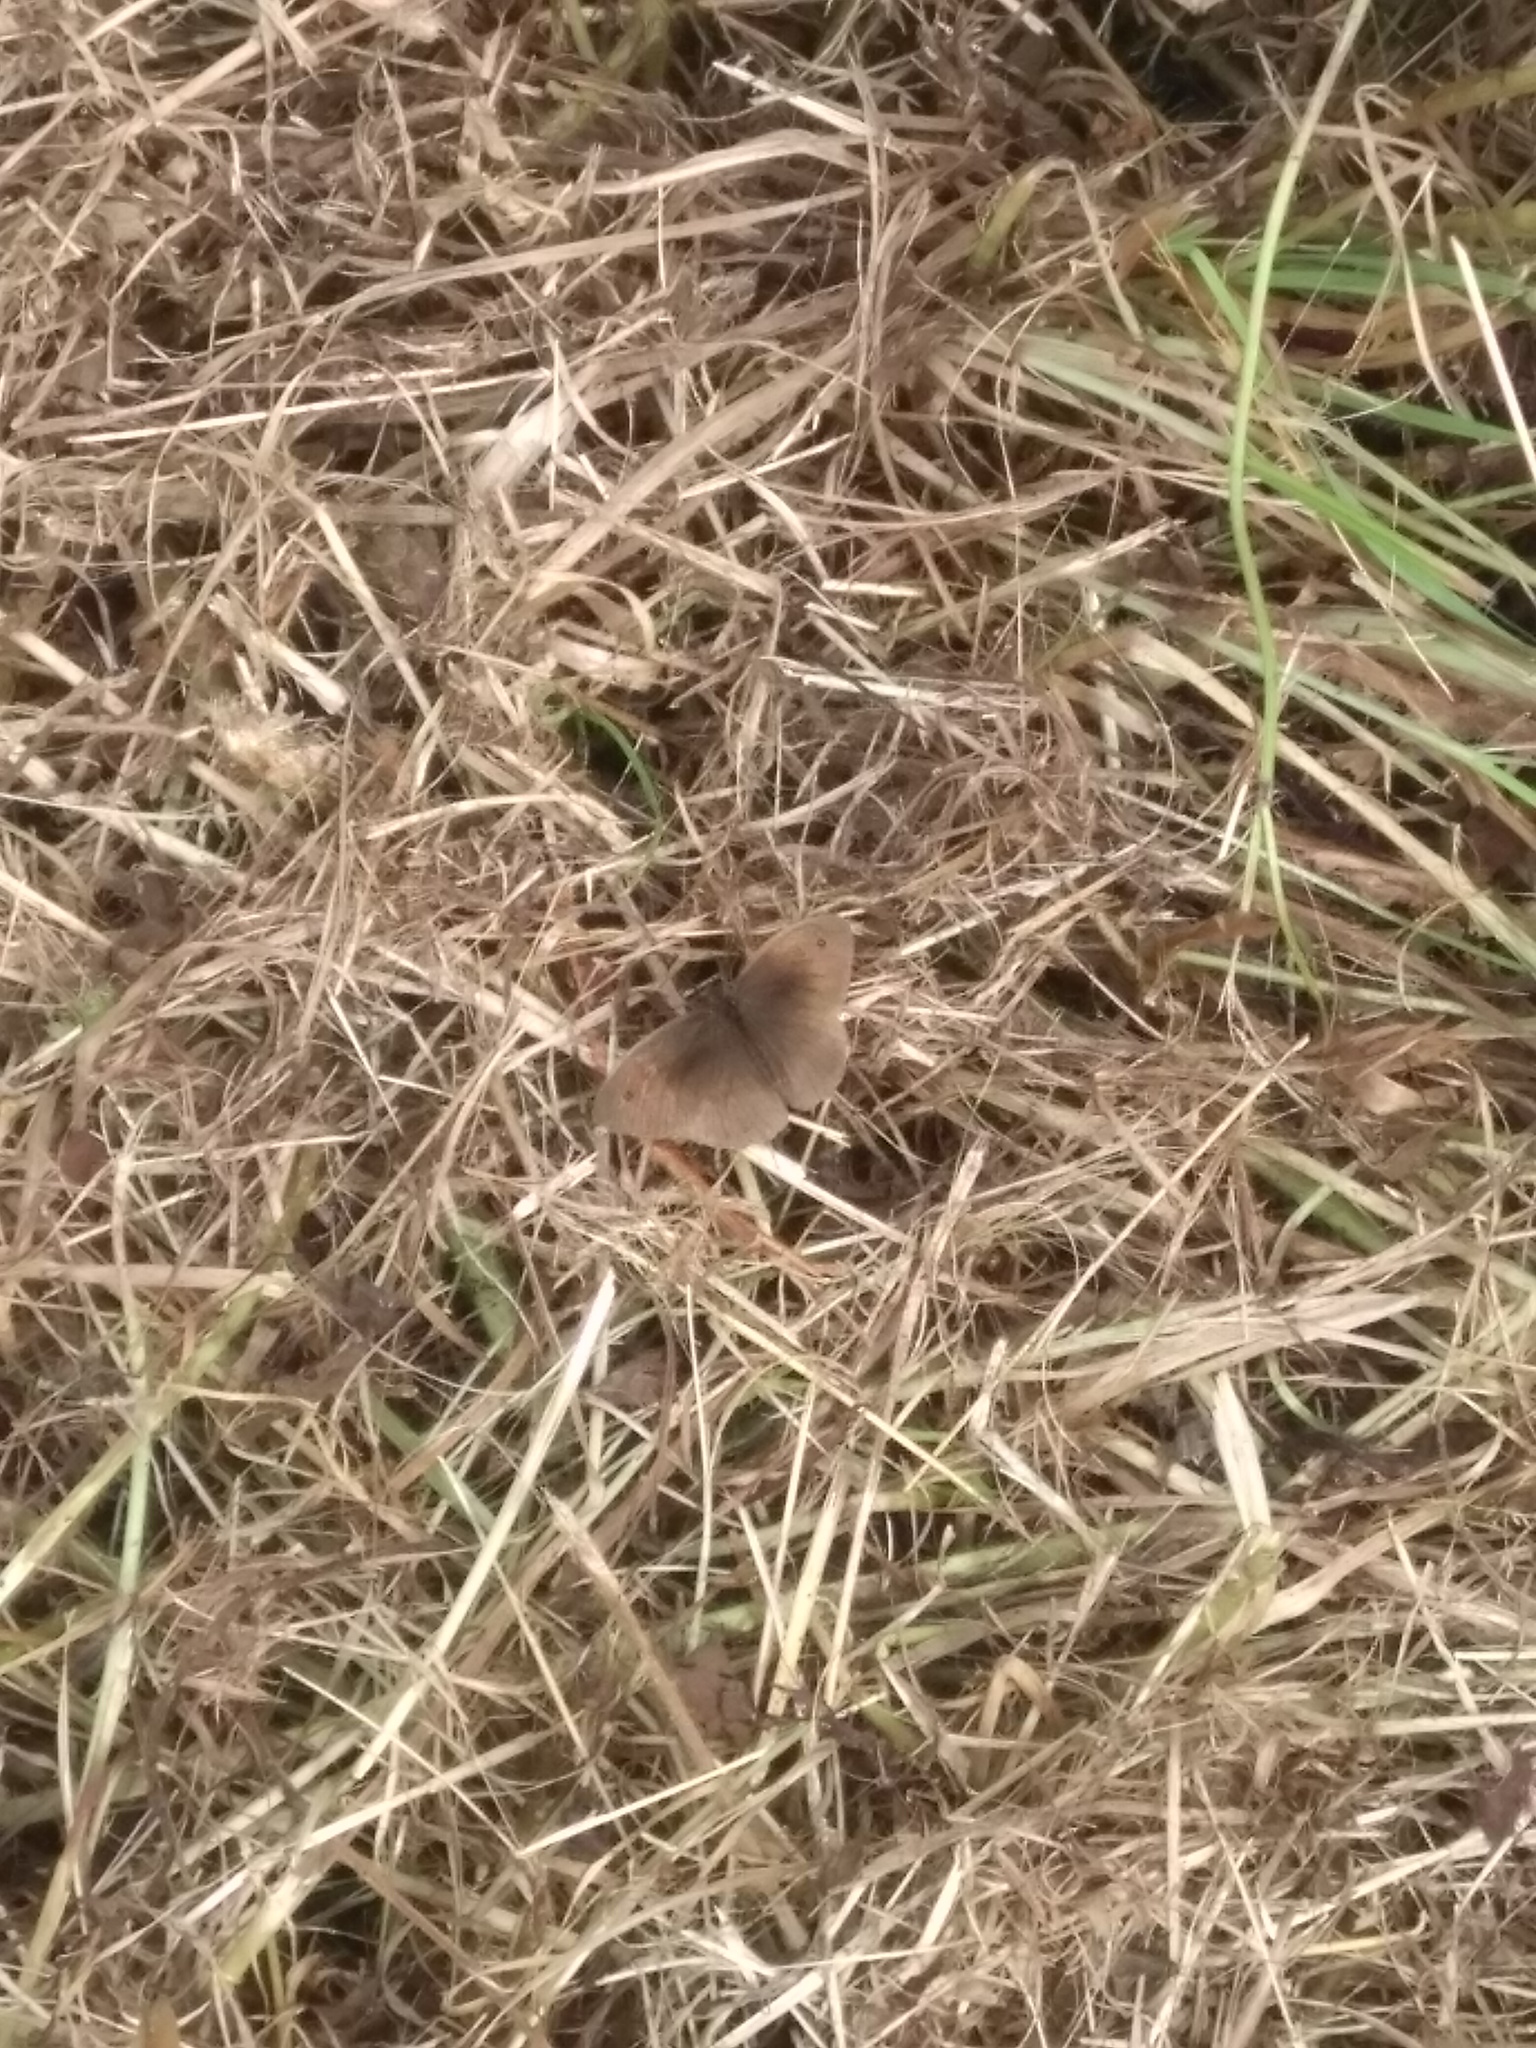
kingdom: Animalia
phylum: Arthropoda
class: Insecta
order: Lepidoptera
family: Nymphalidae
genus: Maniola
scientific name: Maniola jurtina
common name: Meadow brown
